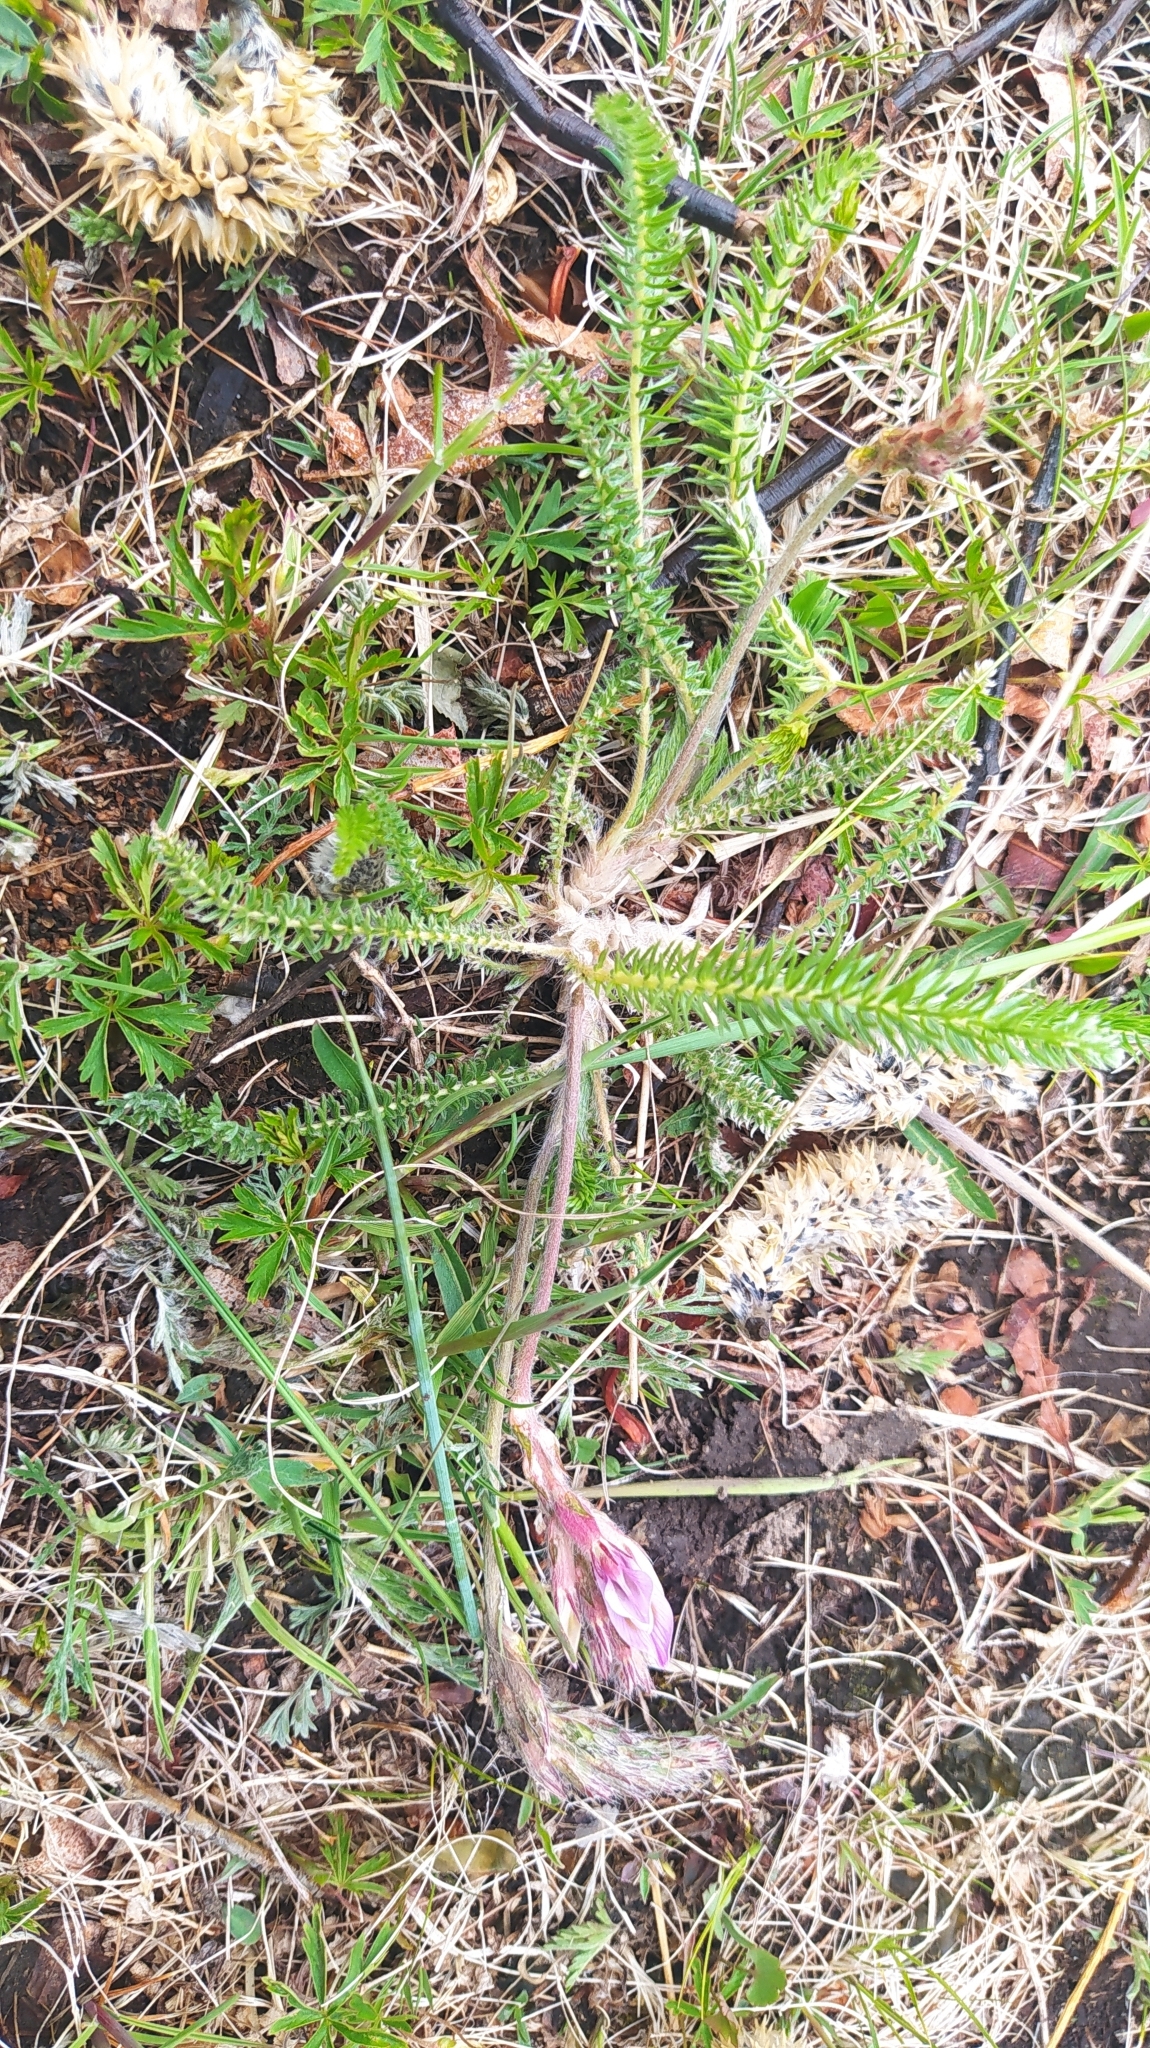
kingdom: Plantae
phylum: Tracheophyta
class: Magnoliopsida
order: Fabales
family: Fabaceae
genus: Oxytropis
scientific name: Oxytropis myriophylla
